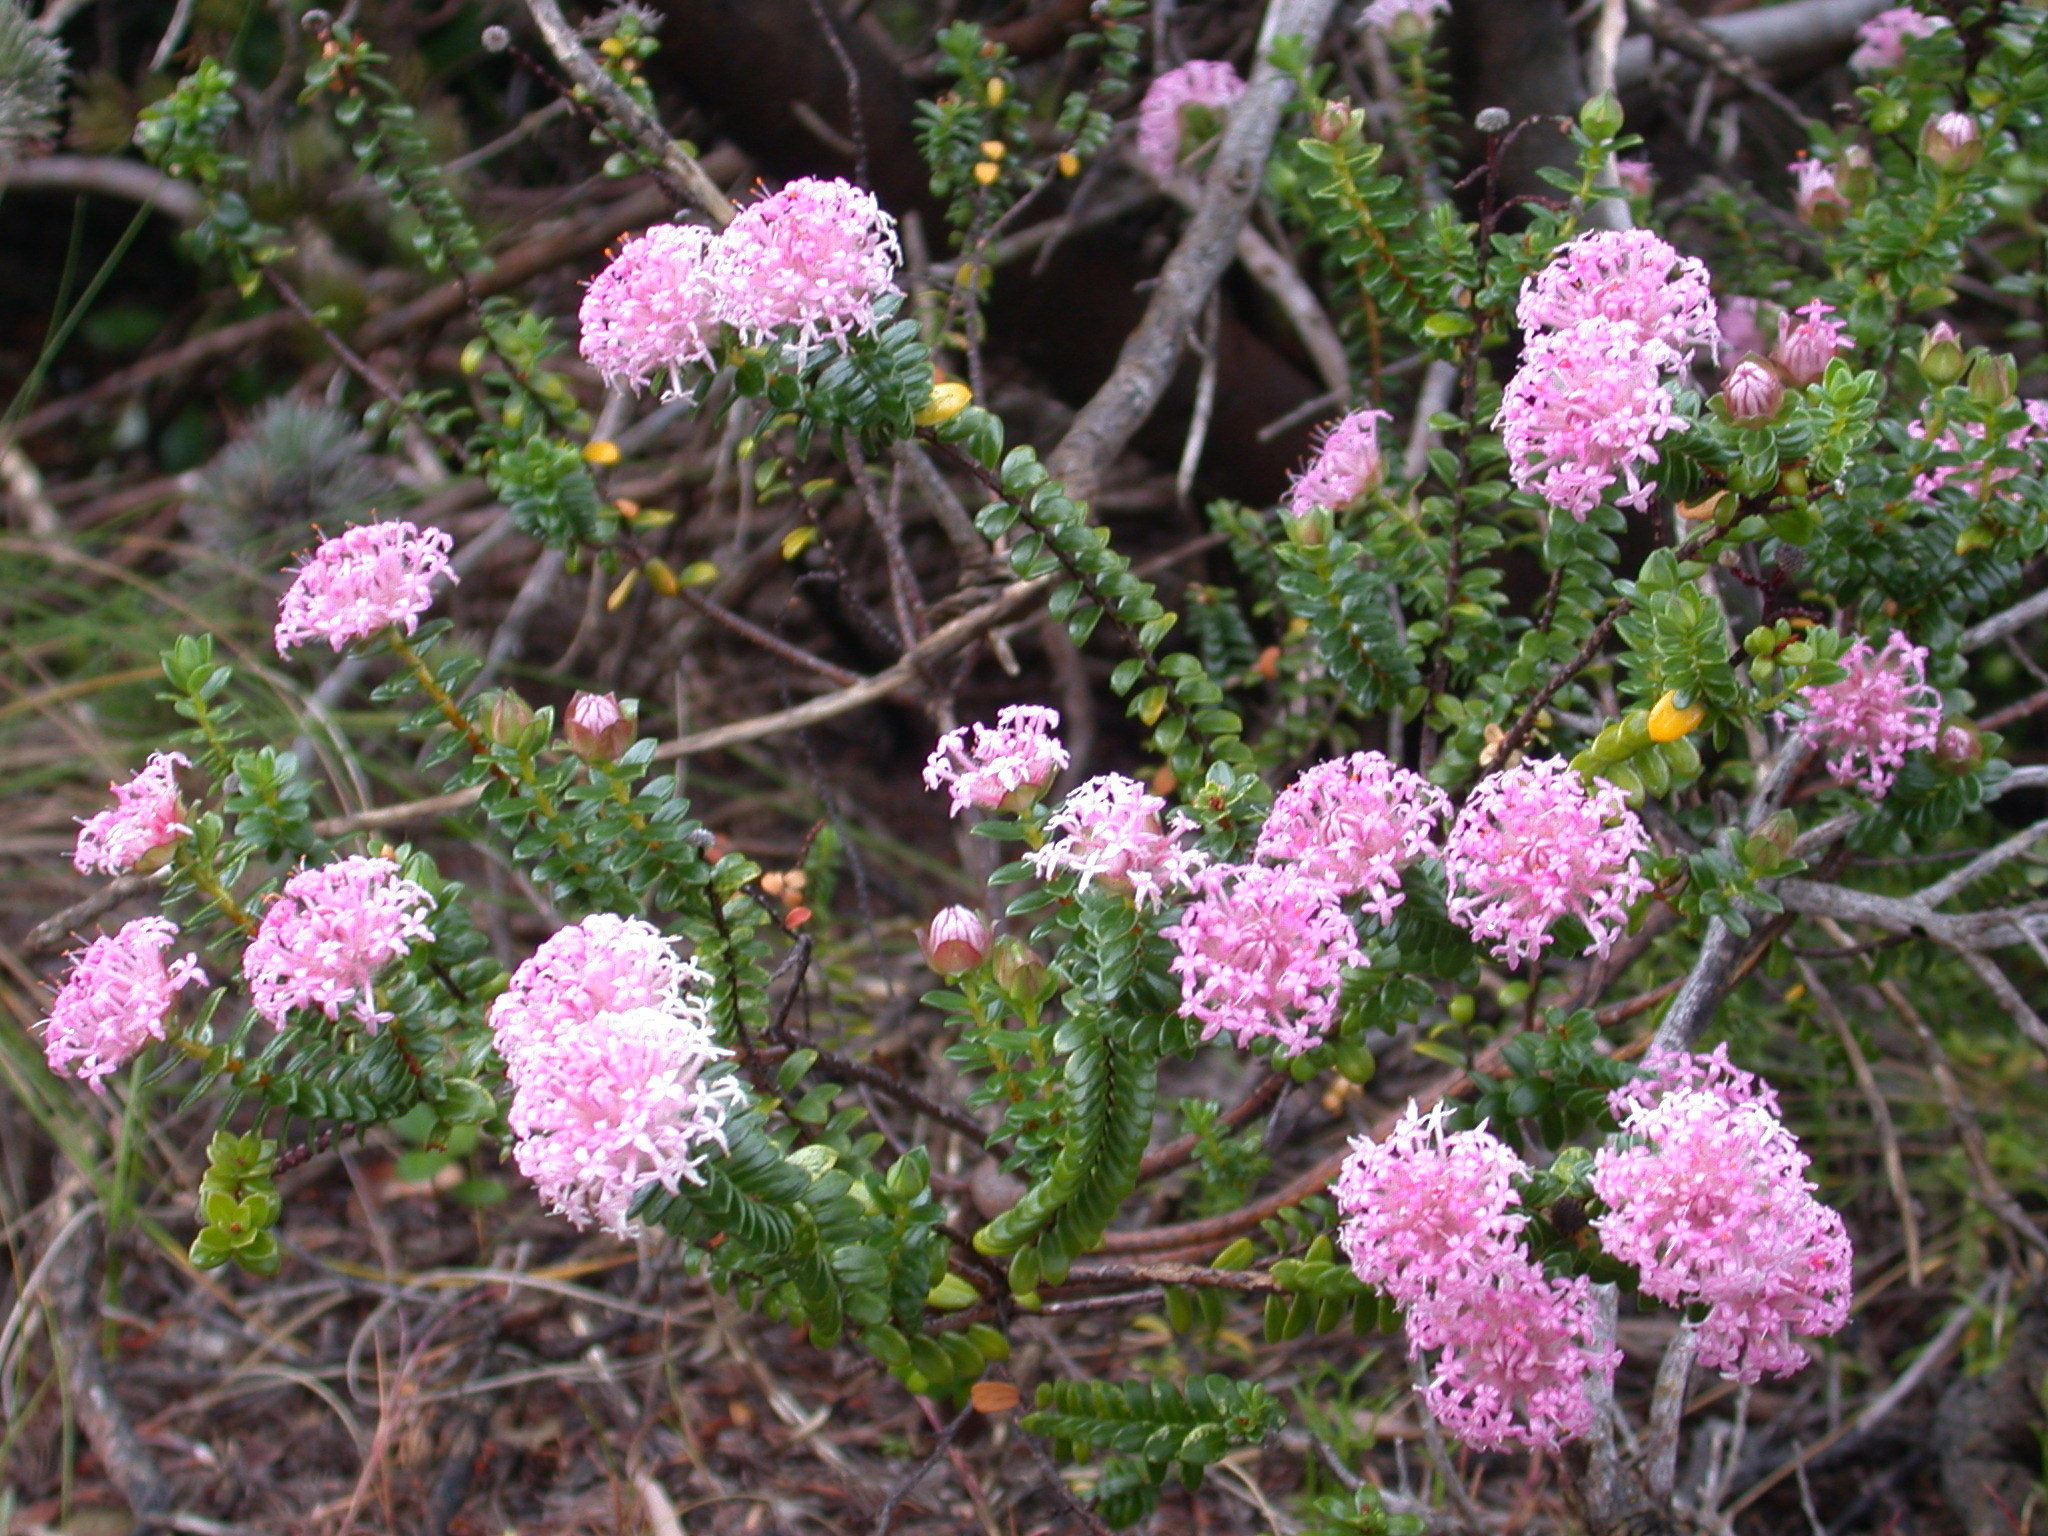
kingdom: Plantae
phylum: Tracheophyta
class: Magnoliopsida
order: Malvales
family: Thymelaeaceae
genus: Pimelea
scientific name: Pimelea ferruginea
